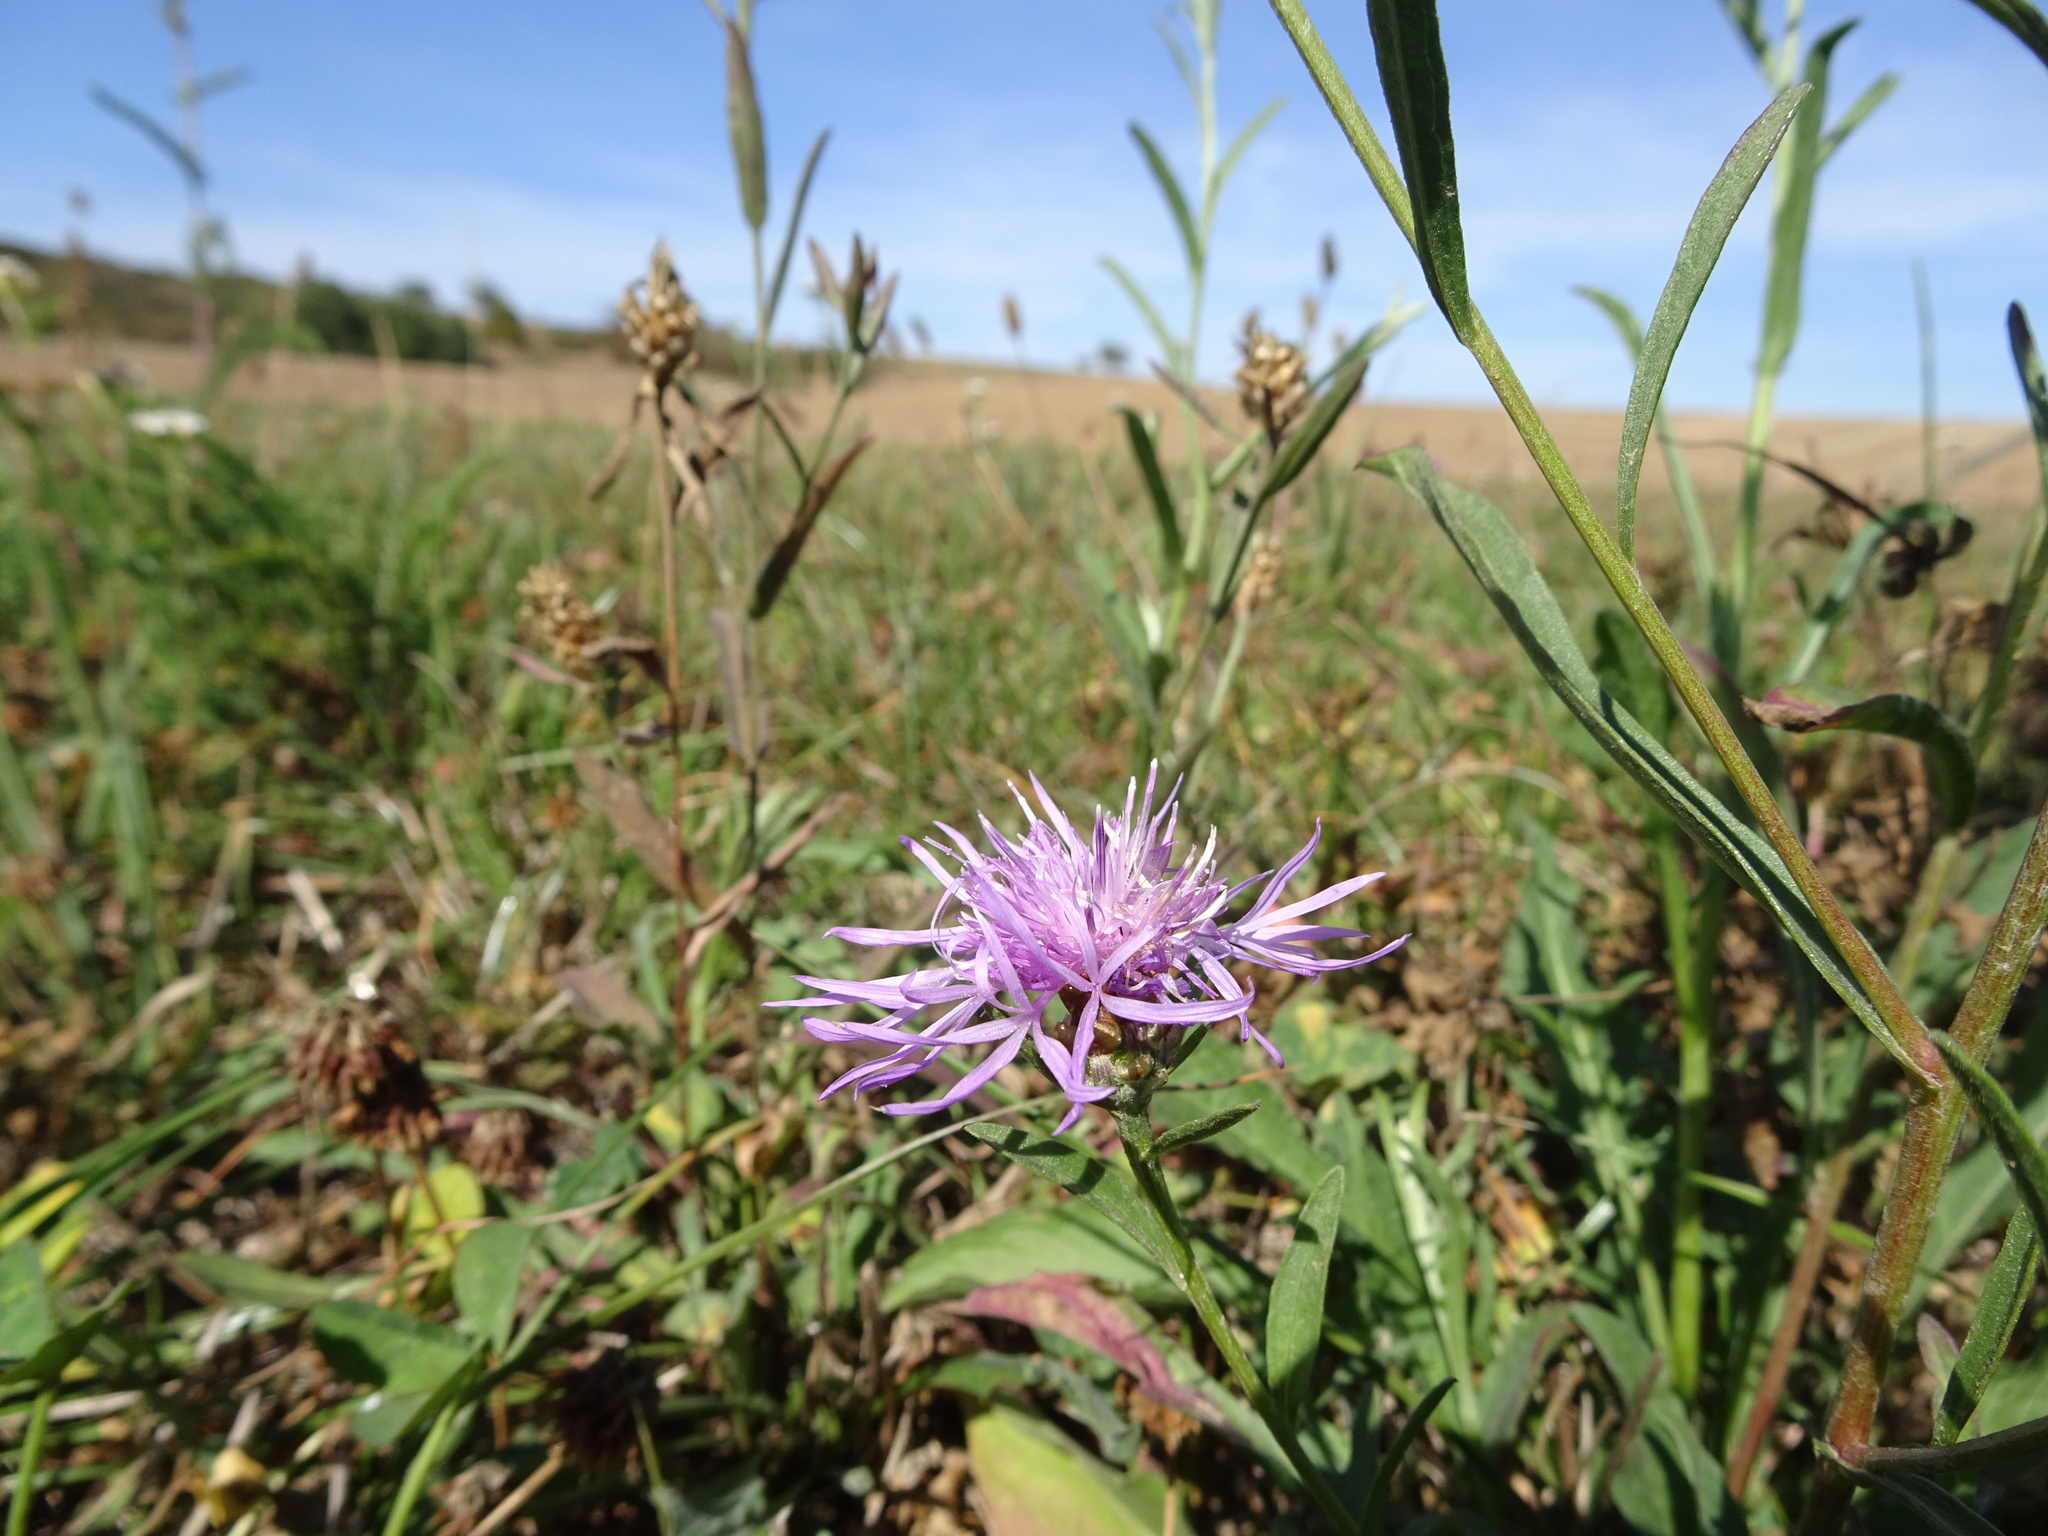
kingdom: Plantae
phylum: Tracheophyta
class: Magnoliopsida
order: Asterales
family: Asteraceae
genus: Centaurea
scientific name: Centaurea jacea
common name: Brown knapweed
